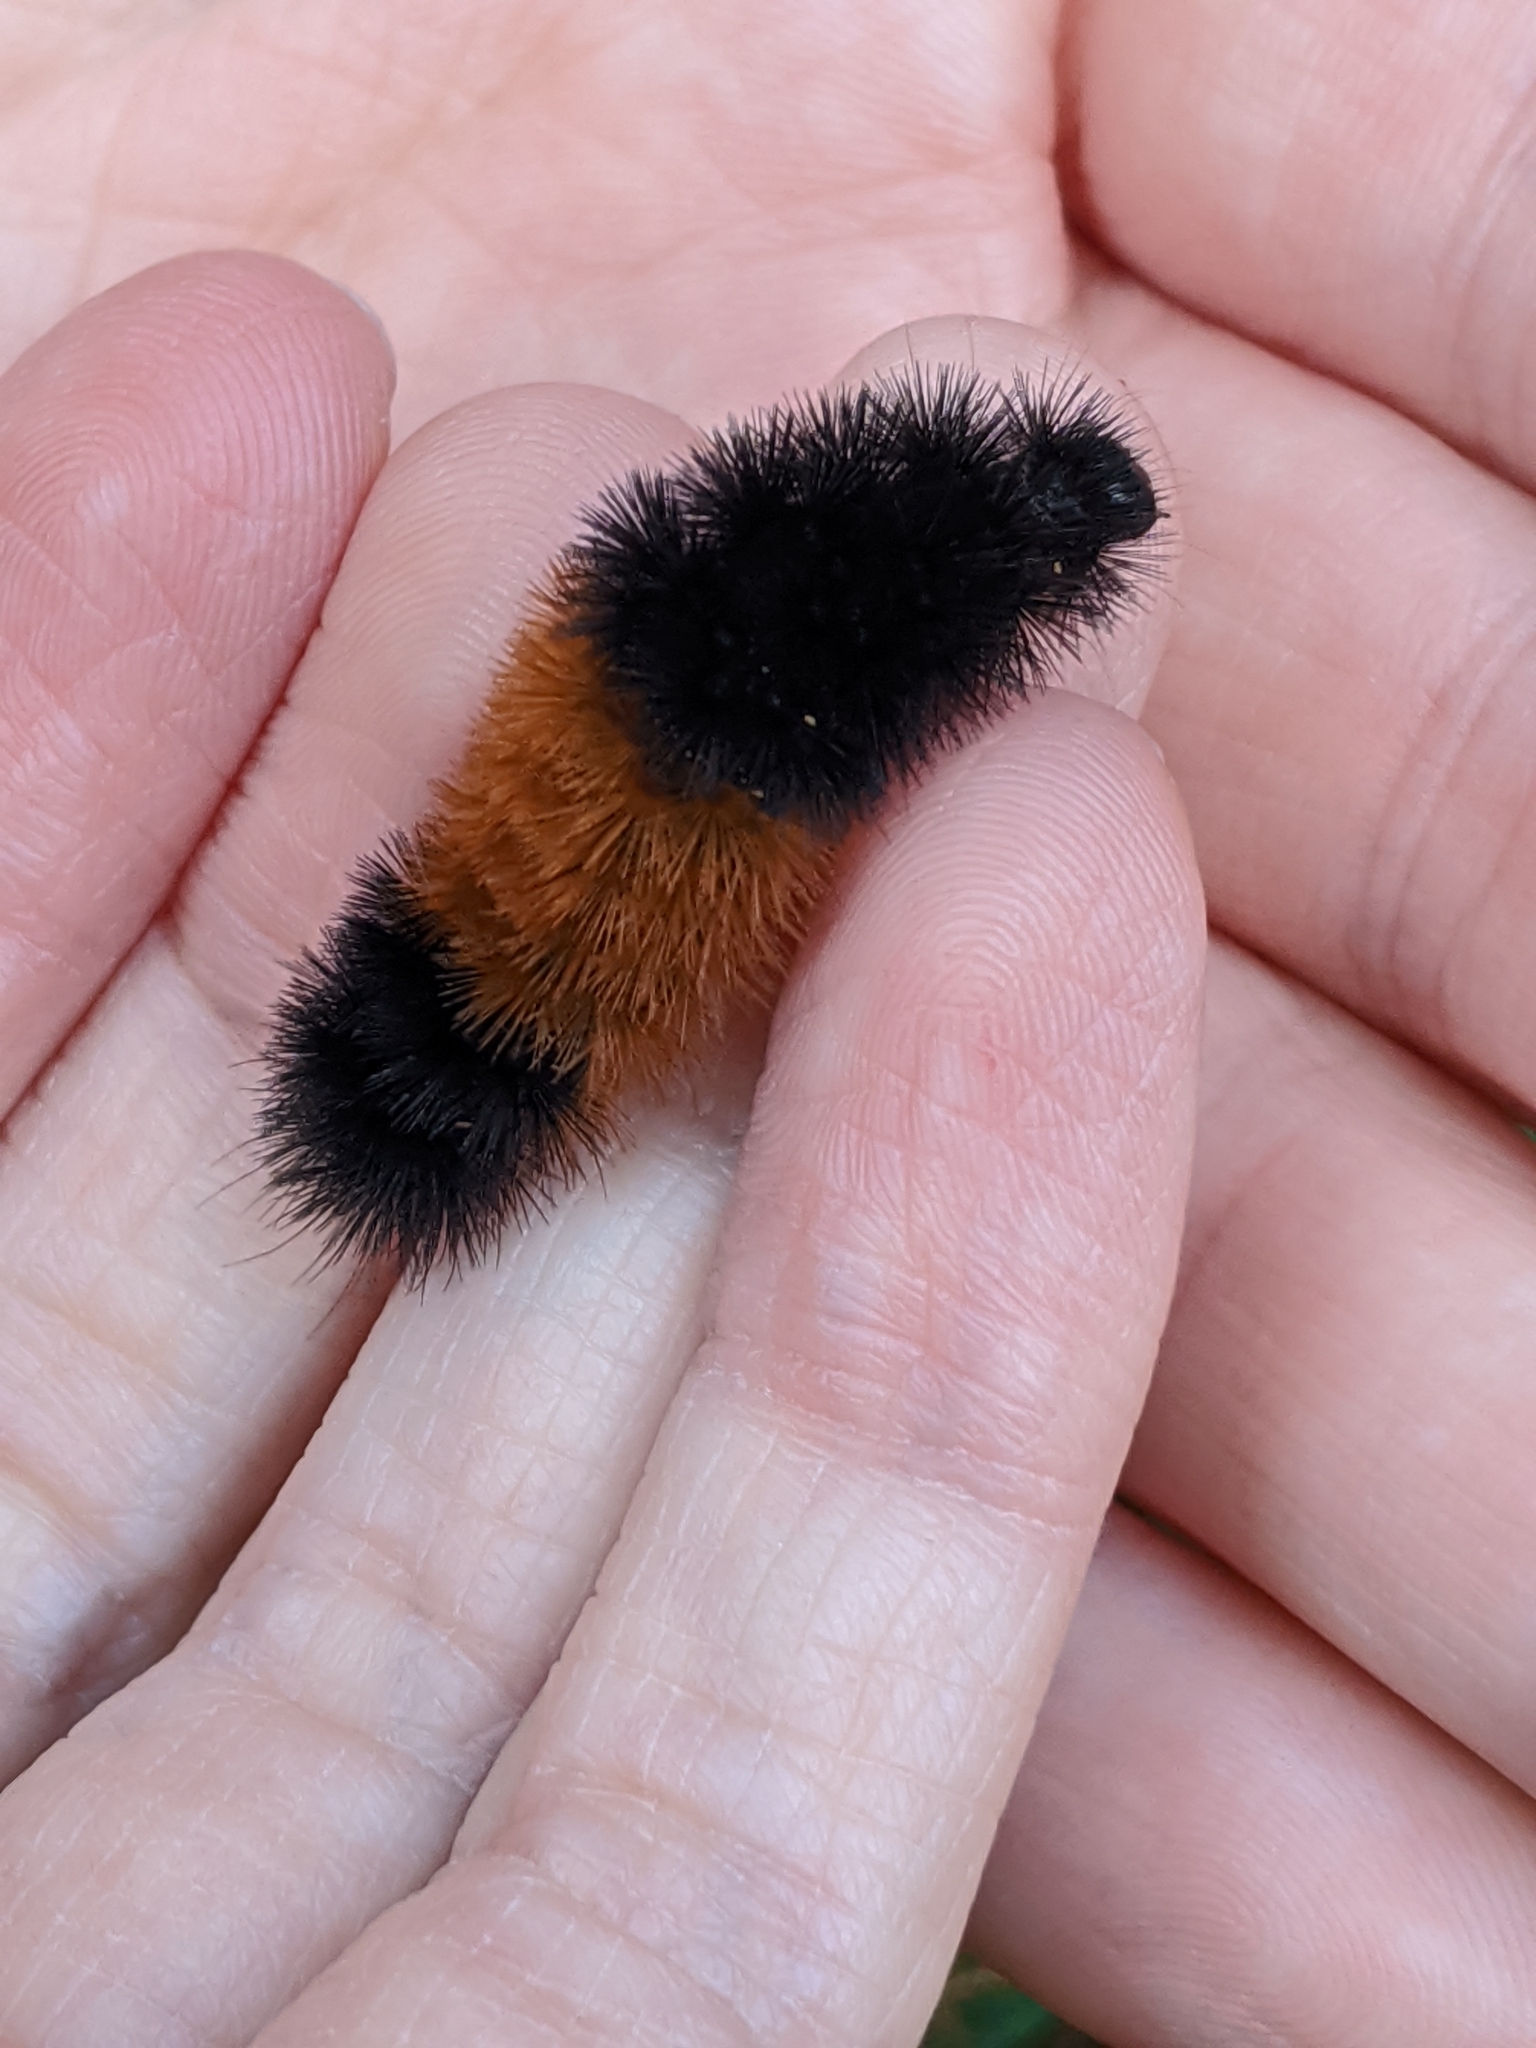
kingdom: Animalia
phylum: Arthropoda
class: Insecta
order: Lepidoptera
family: Erebidae
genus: Pyrrharctia
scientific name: Pyrrharctia isabella
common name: Isabella tiger moth
